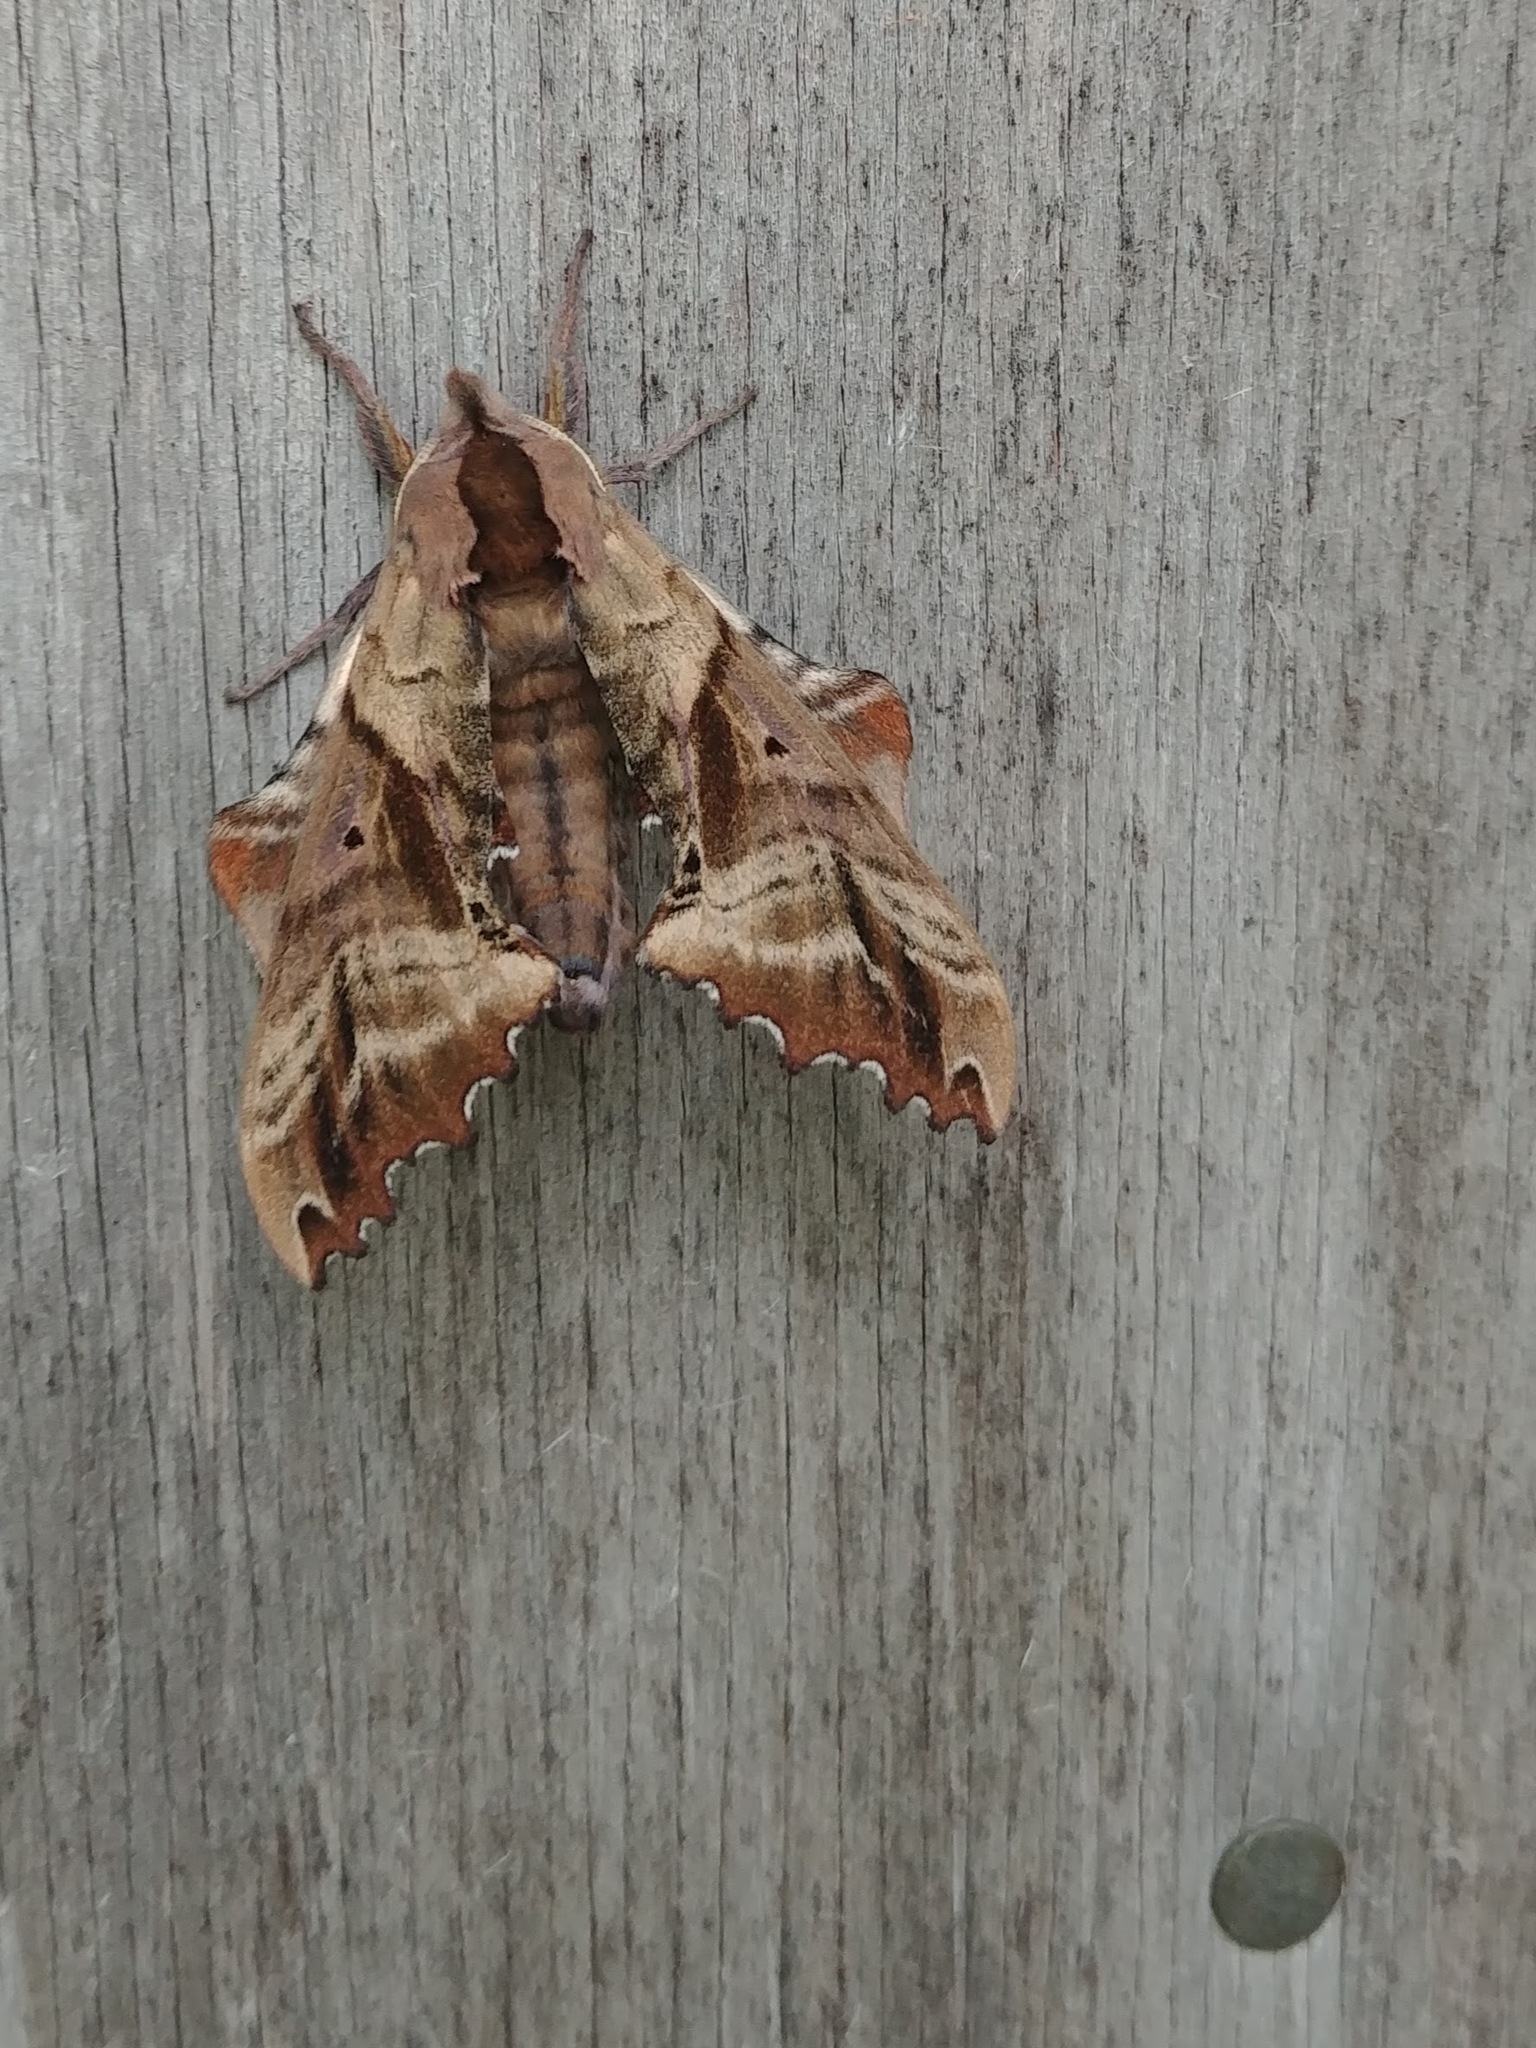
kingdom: Animalia
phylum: Arthropoda
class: Insecta
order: Lepidoptera
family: Sphingidae
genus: Paonias
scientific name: Paonias excaecata
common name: Blind-eyed sphinx
